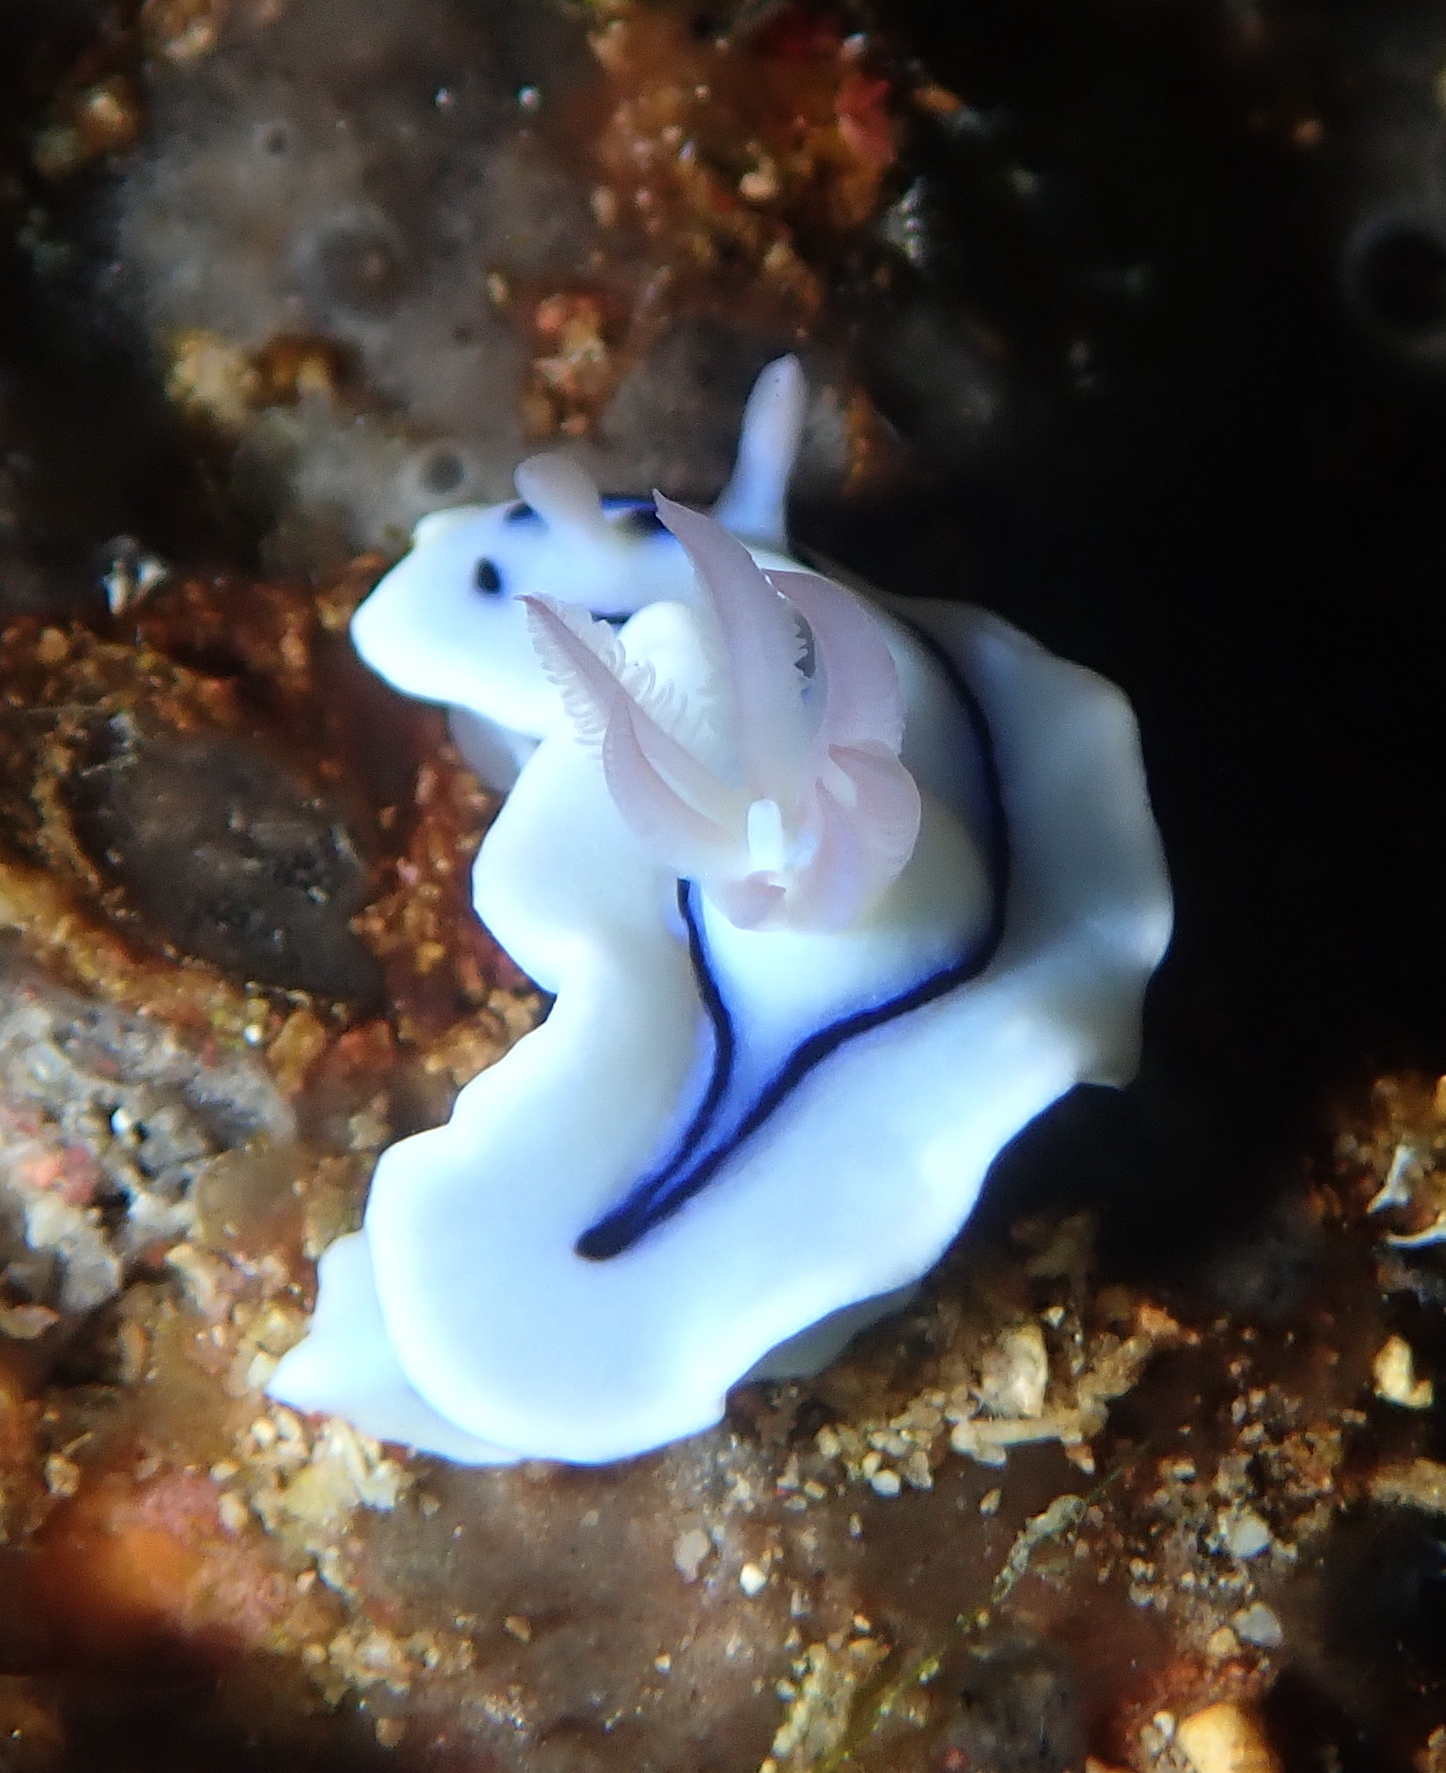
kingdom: Animalia
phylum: Mollusca
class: Gastropoda
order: Nudibranchia
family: Chromodorididae
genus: Chromodoris
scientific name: Chromodoris lochi
